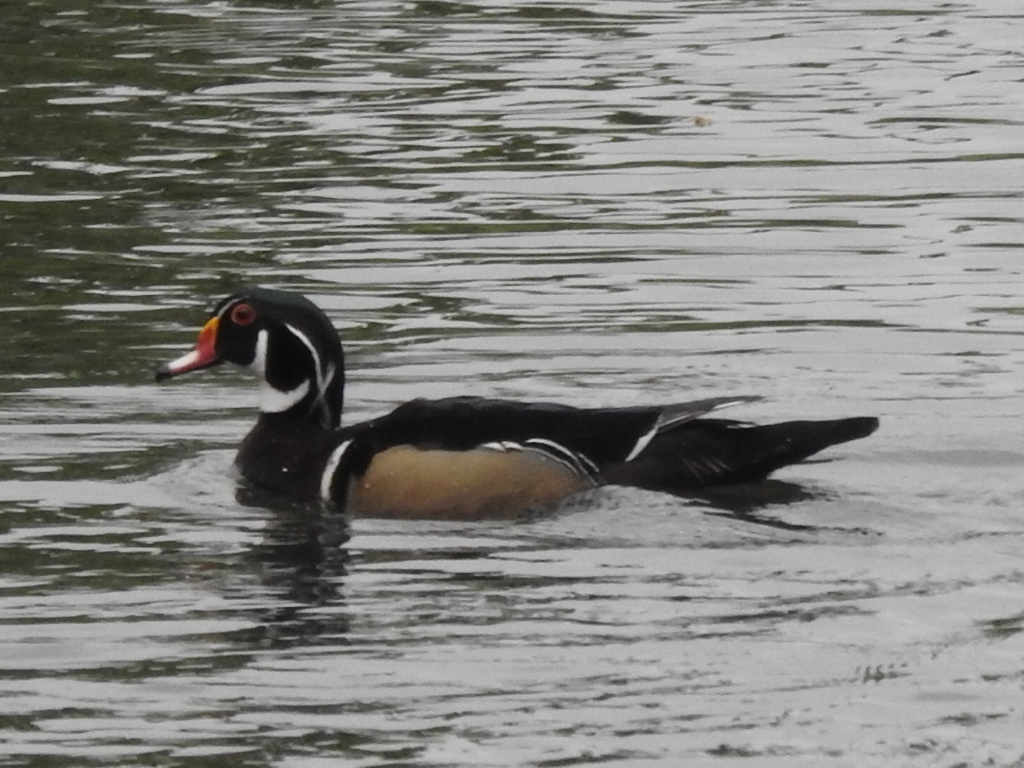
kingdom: Animalia
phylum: Chordata
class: Aves
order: Anseriformes
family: Anatidae
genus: Aix
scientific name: Aix sponsa
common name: Wood duck
